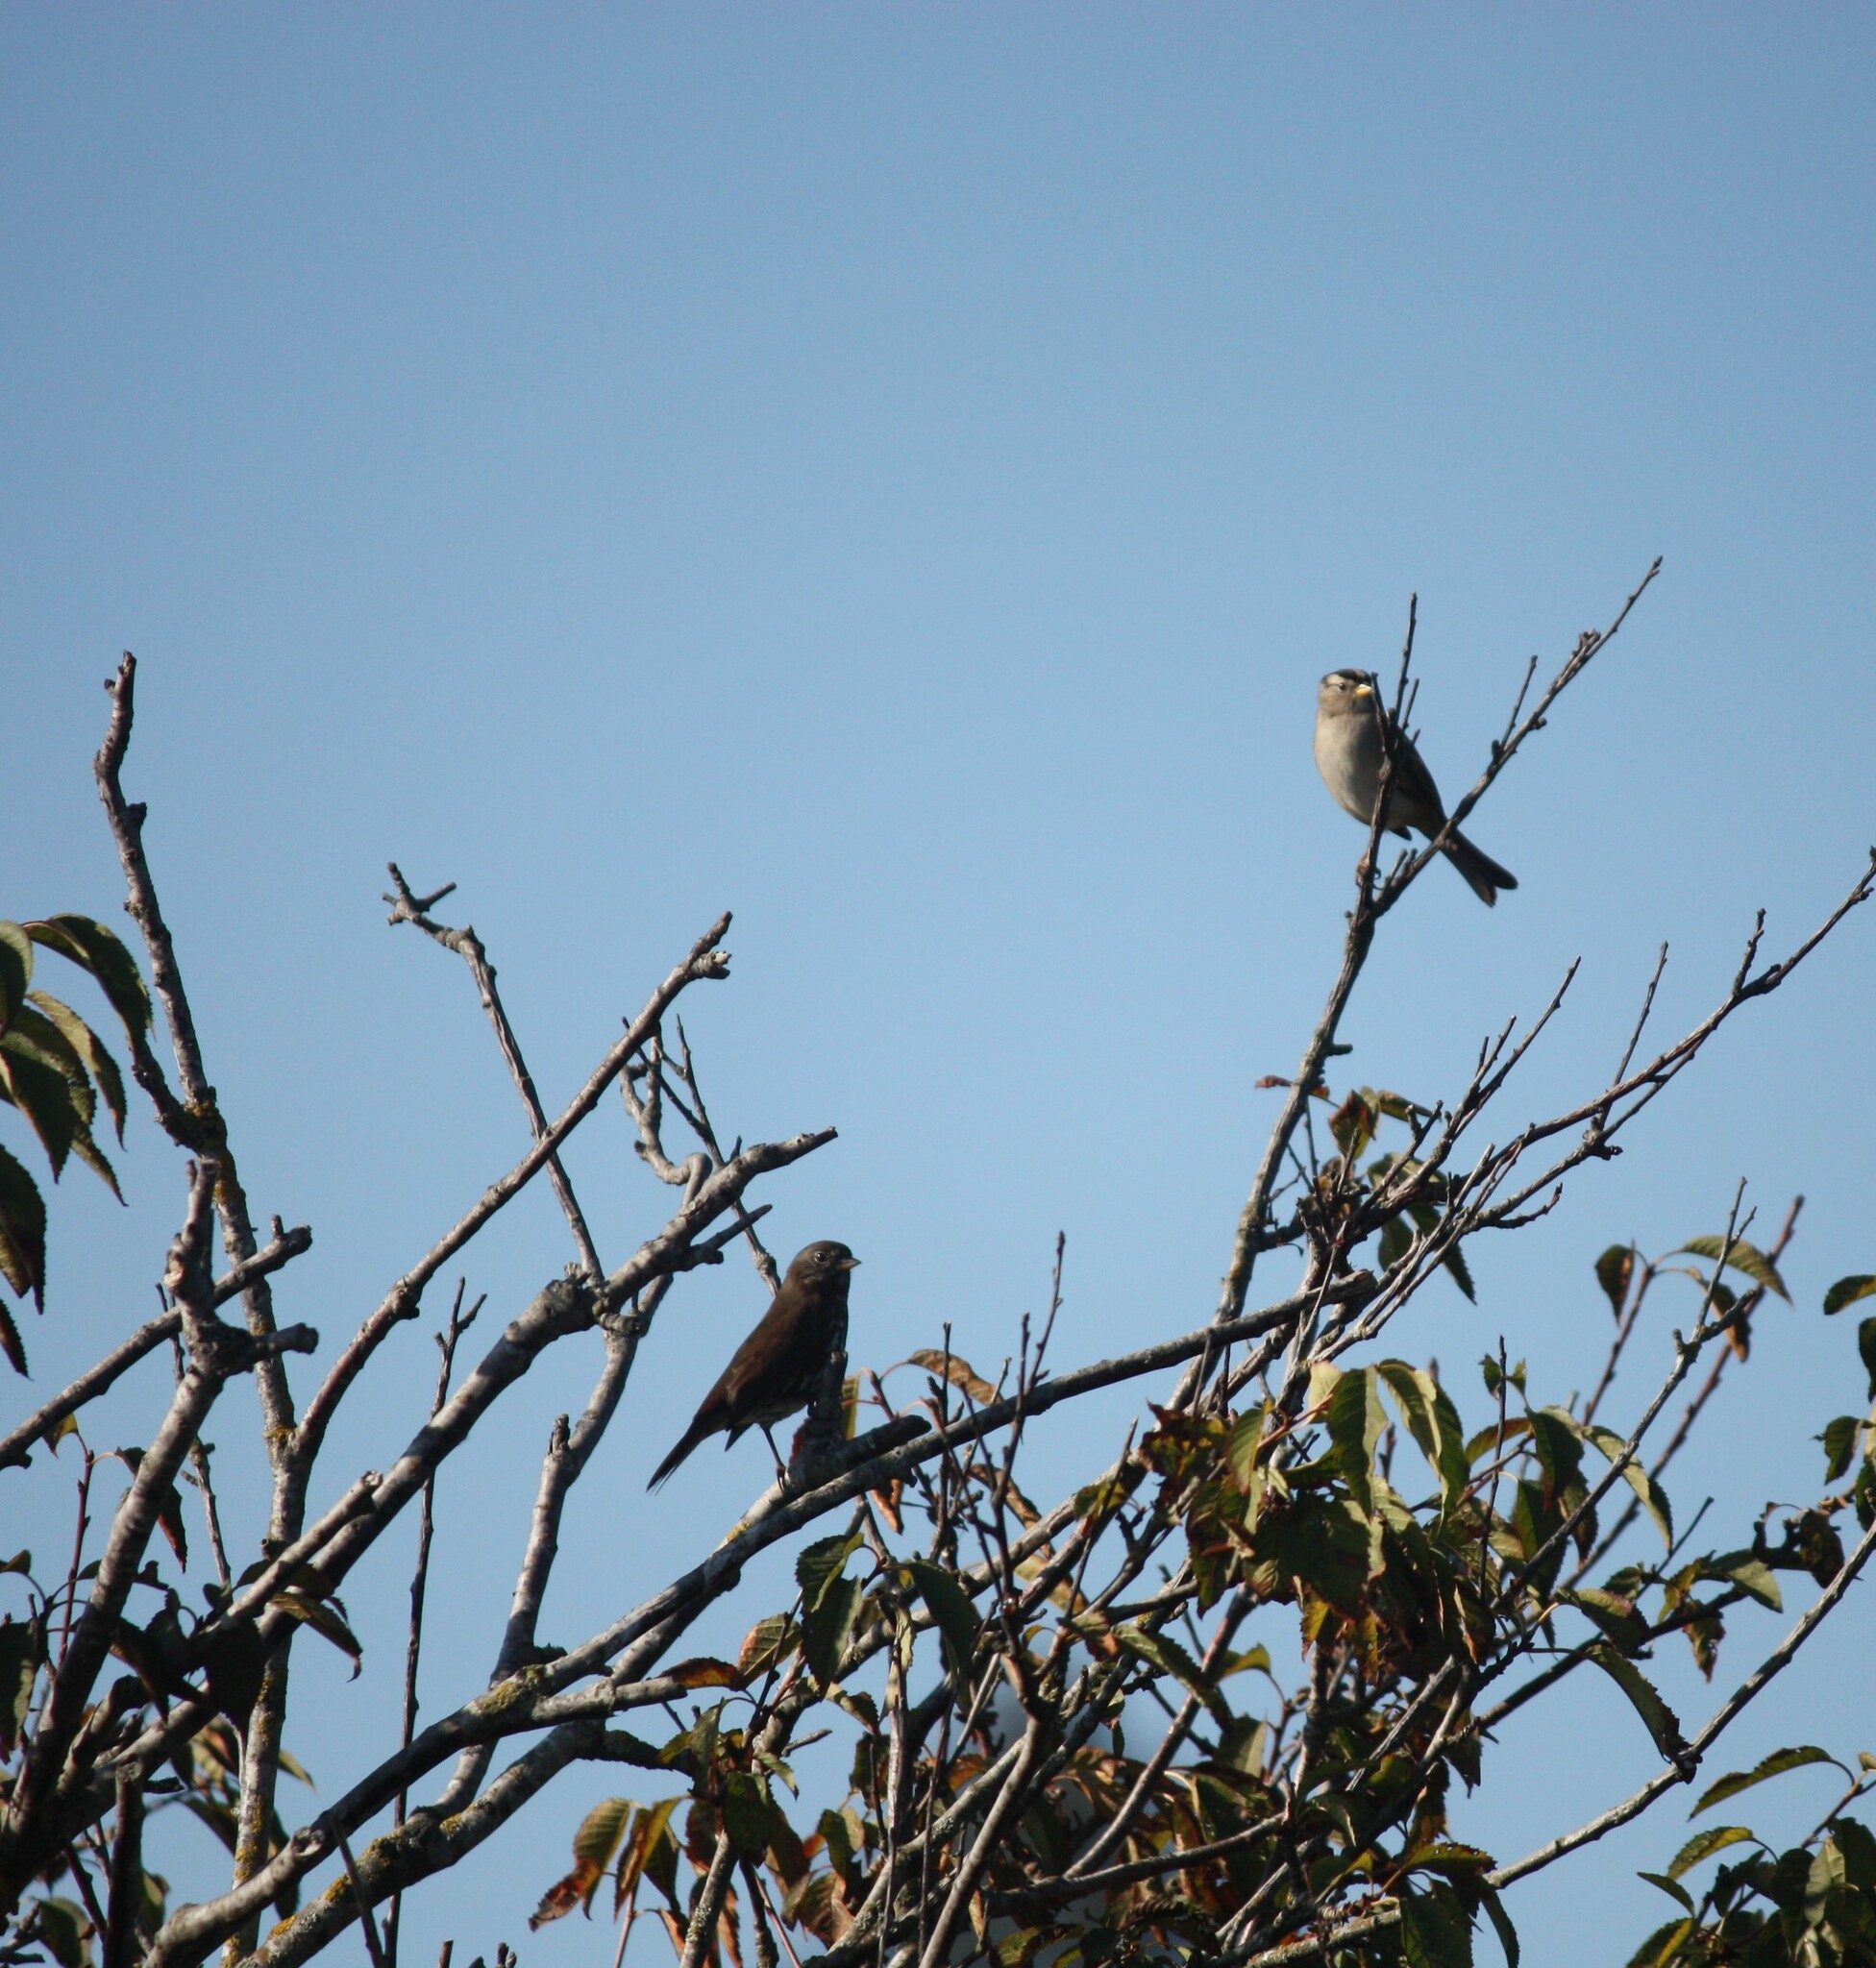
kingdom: Animalia
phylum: Chordata
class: Aves
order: Passeriformes
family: Passerellidae
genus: Passerella
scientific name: Passerella iliaca
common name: Fox sparrow
